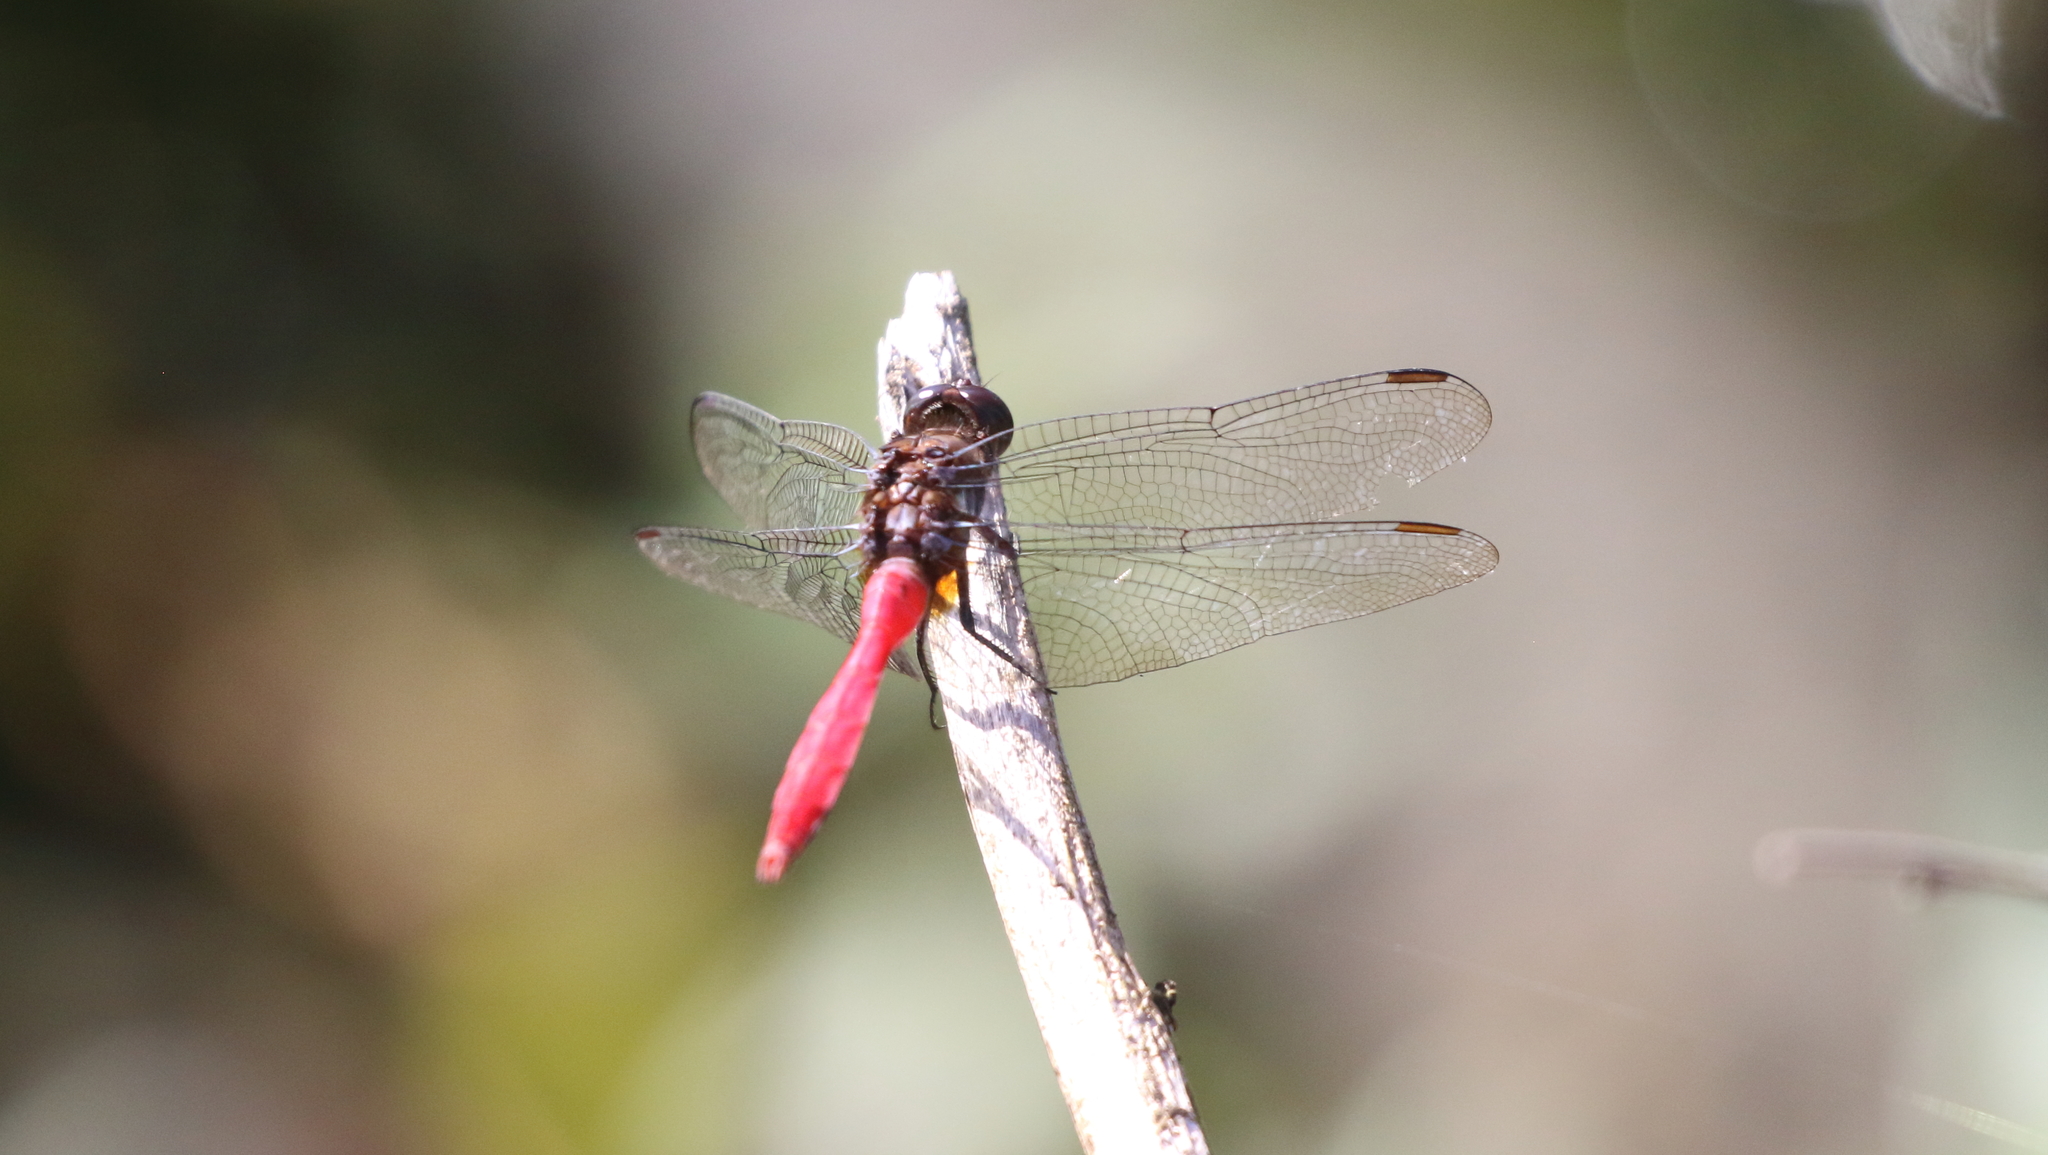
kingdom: Animalia
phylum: Arthropoda
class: Insecta
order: Odonata
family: Libellulidae
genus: Orthetrum
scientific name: Orthetrum villosovittatum
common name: Firery skimmer
